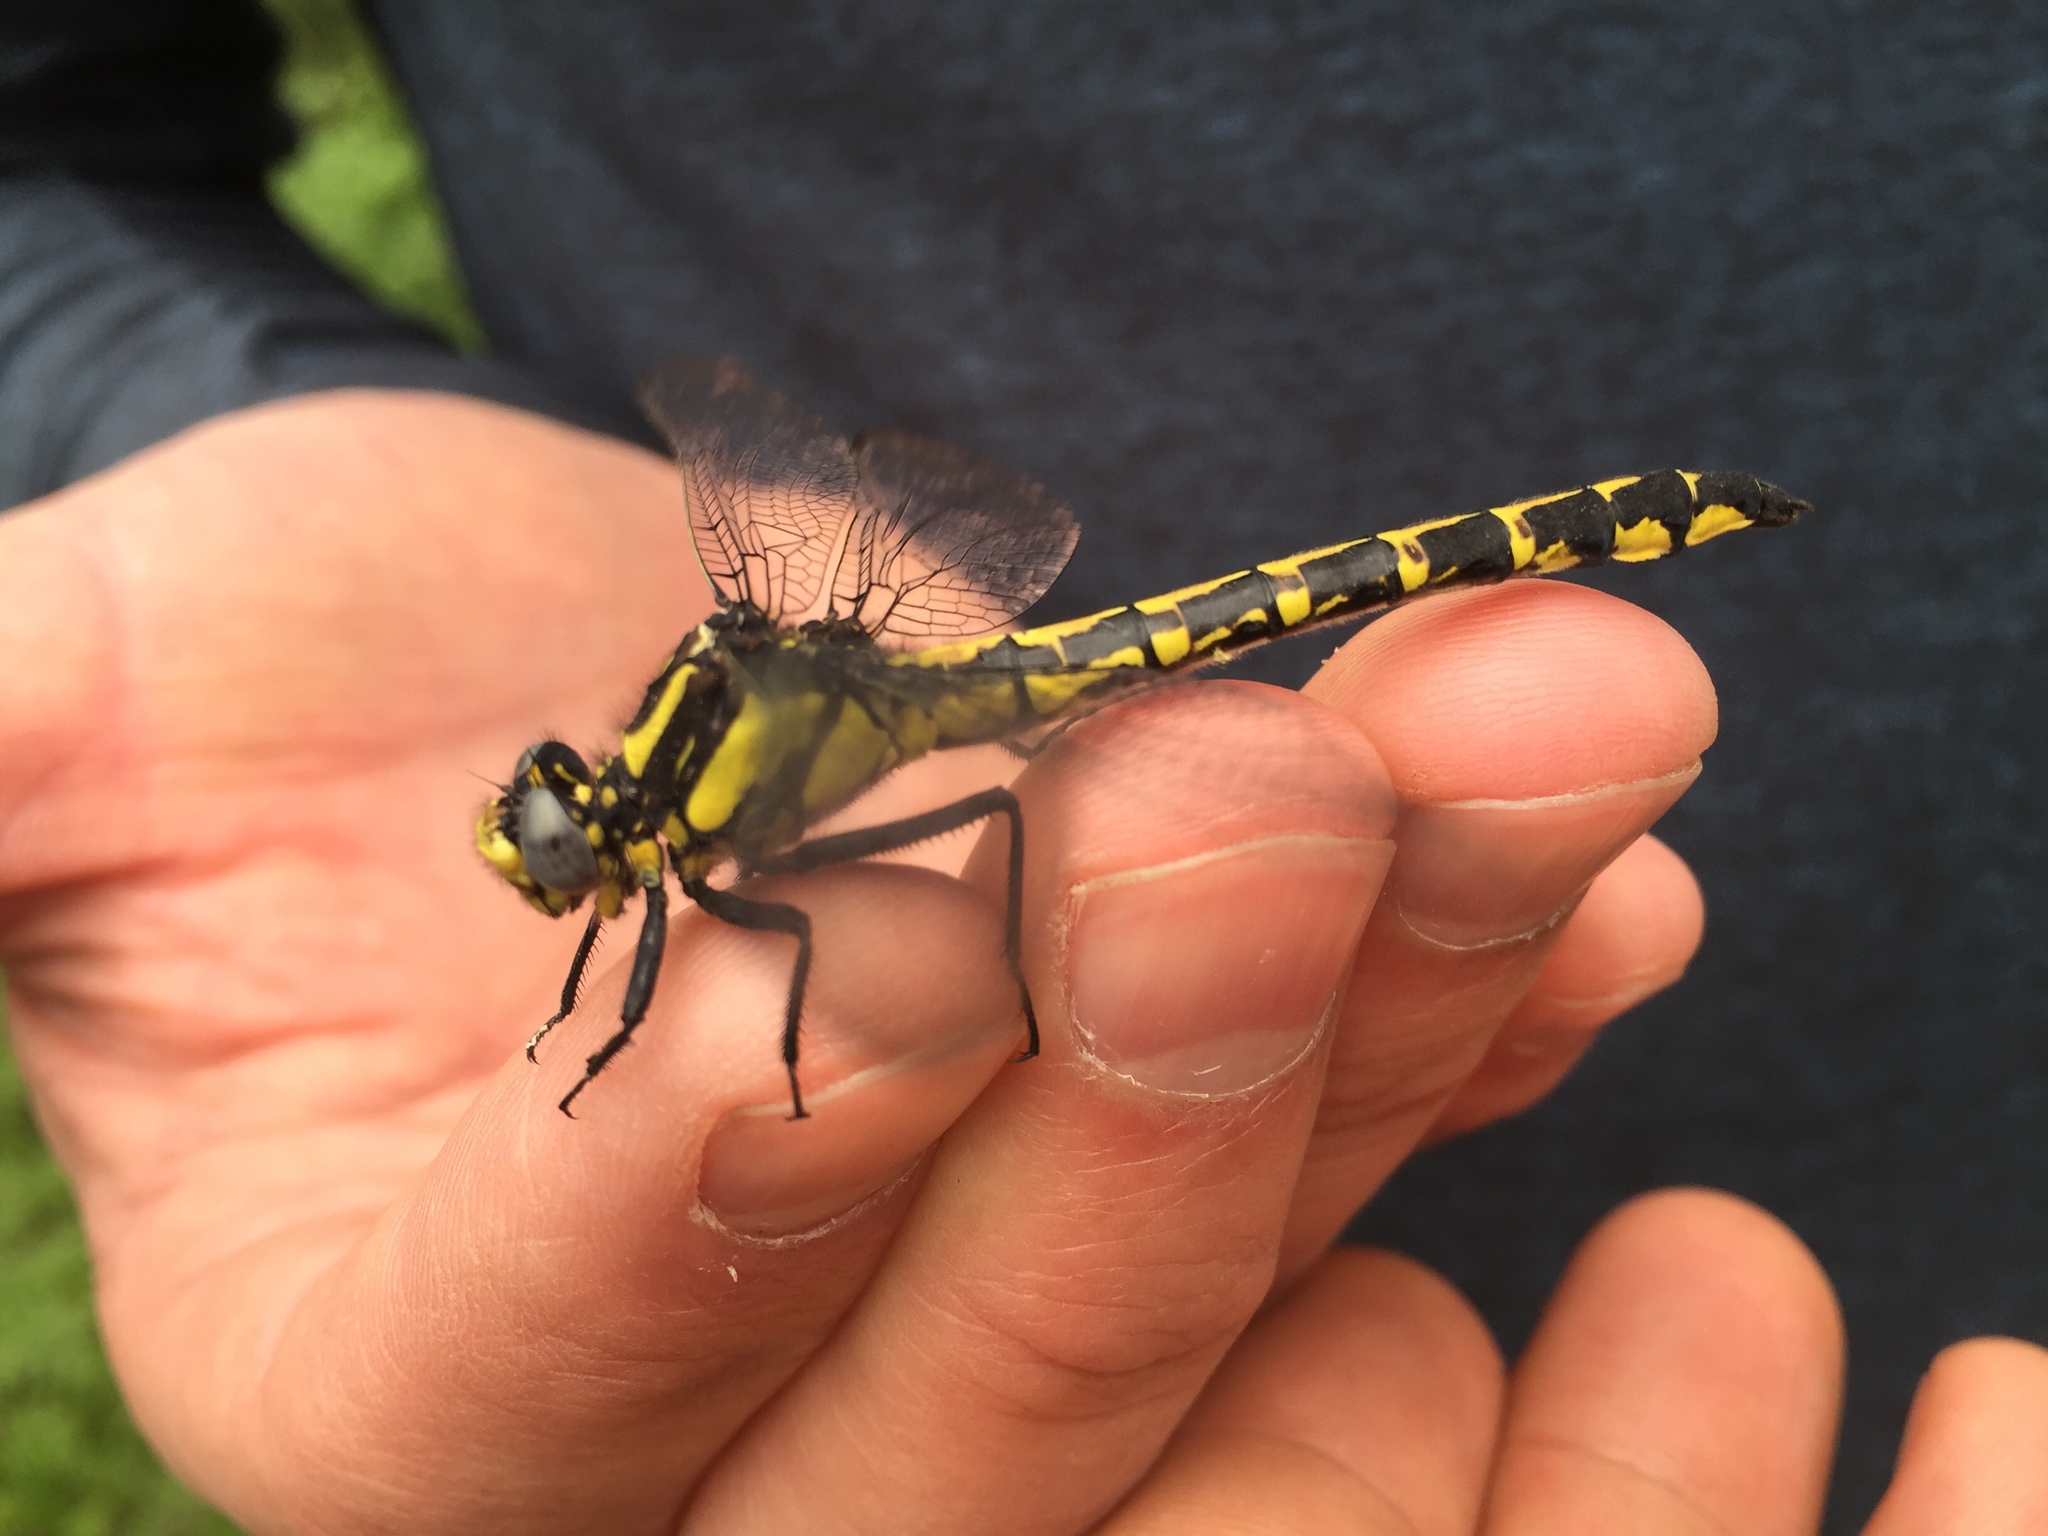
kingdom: Animalia
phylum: Arthropoda
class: Insecta
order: Odonata
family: Gomphidae
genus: Phanogomphus
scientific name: Phanogomphus kurilis
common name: Pacific clubtail
